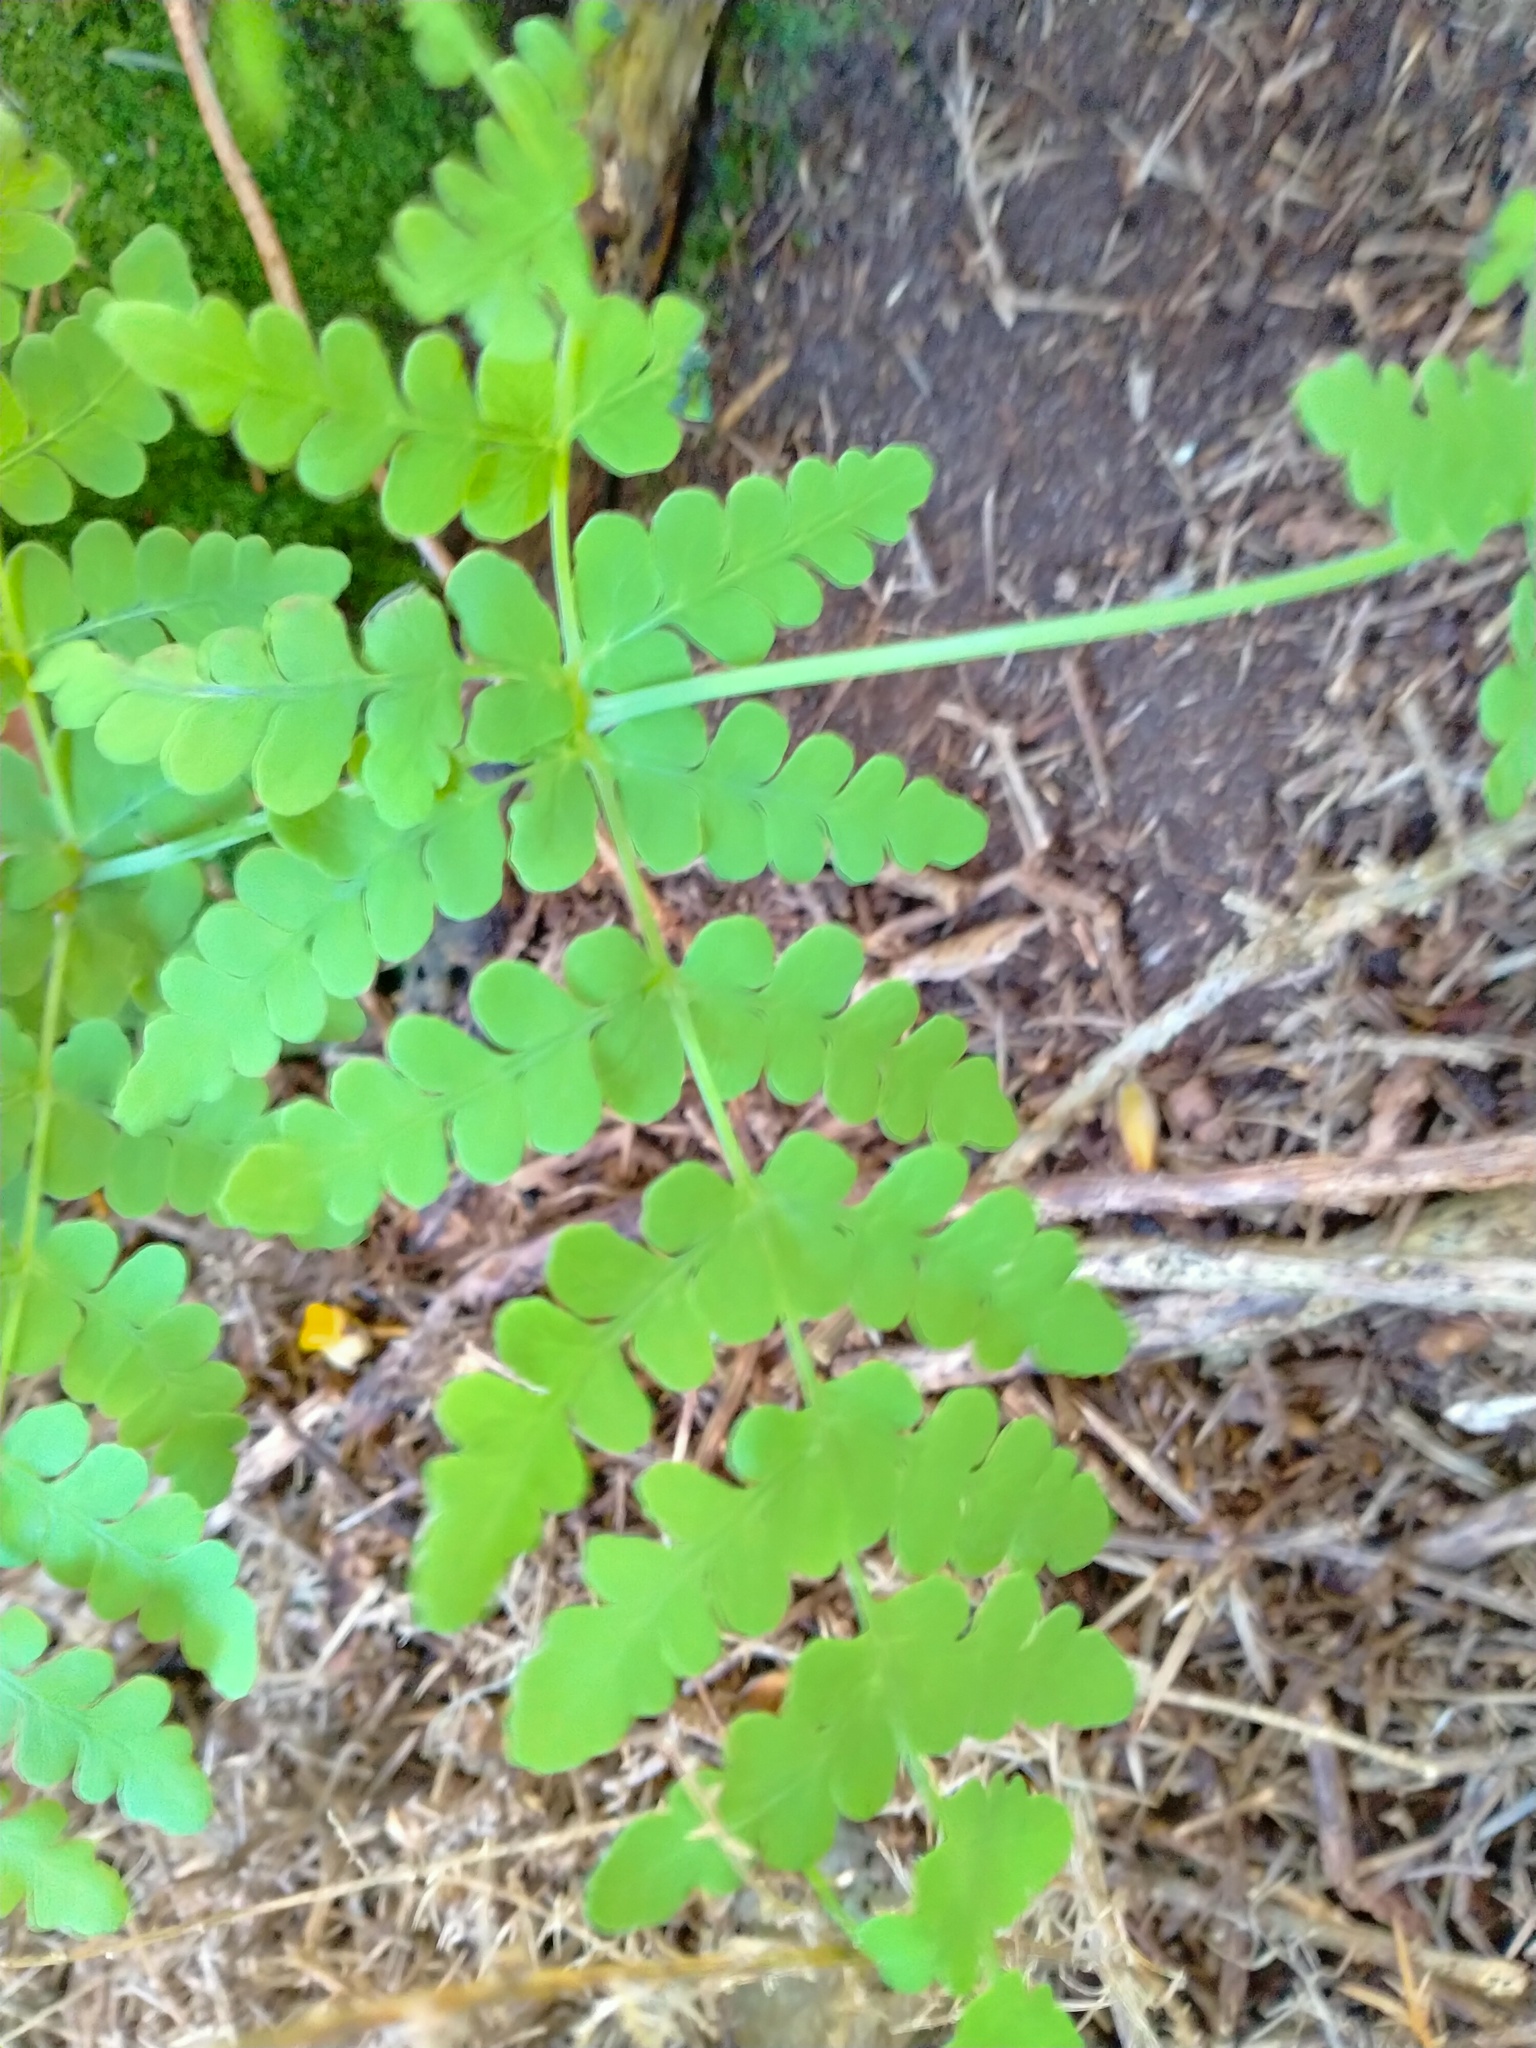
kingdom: Plantae
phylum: Tracheophyta
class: Polypodiopsida
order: Polypodiales
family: Dennstaedtiaceae
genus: Histiopteris
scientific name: Histiopteris incisa
